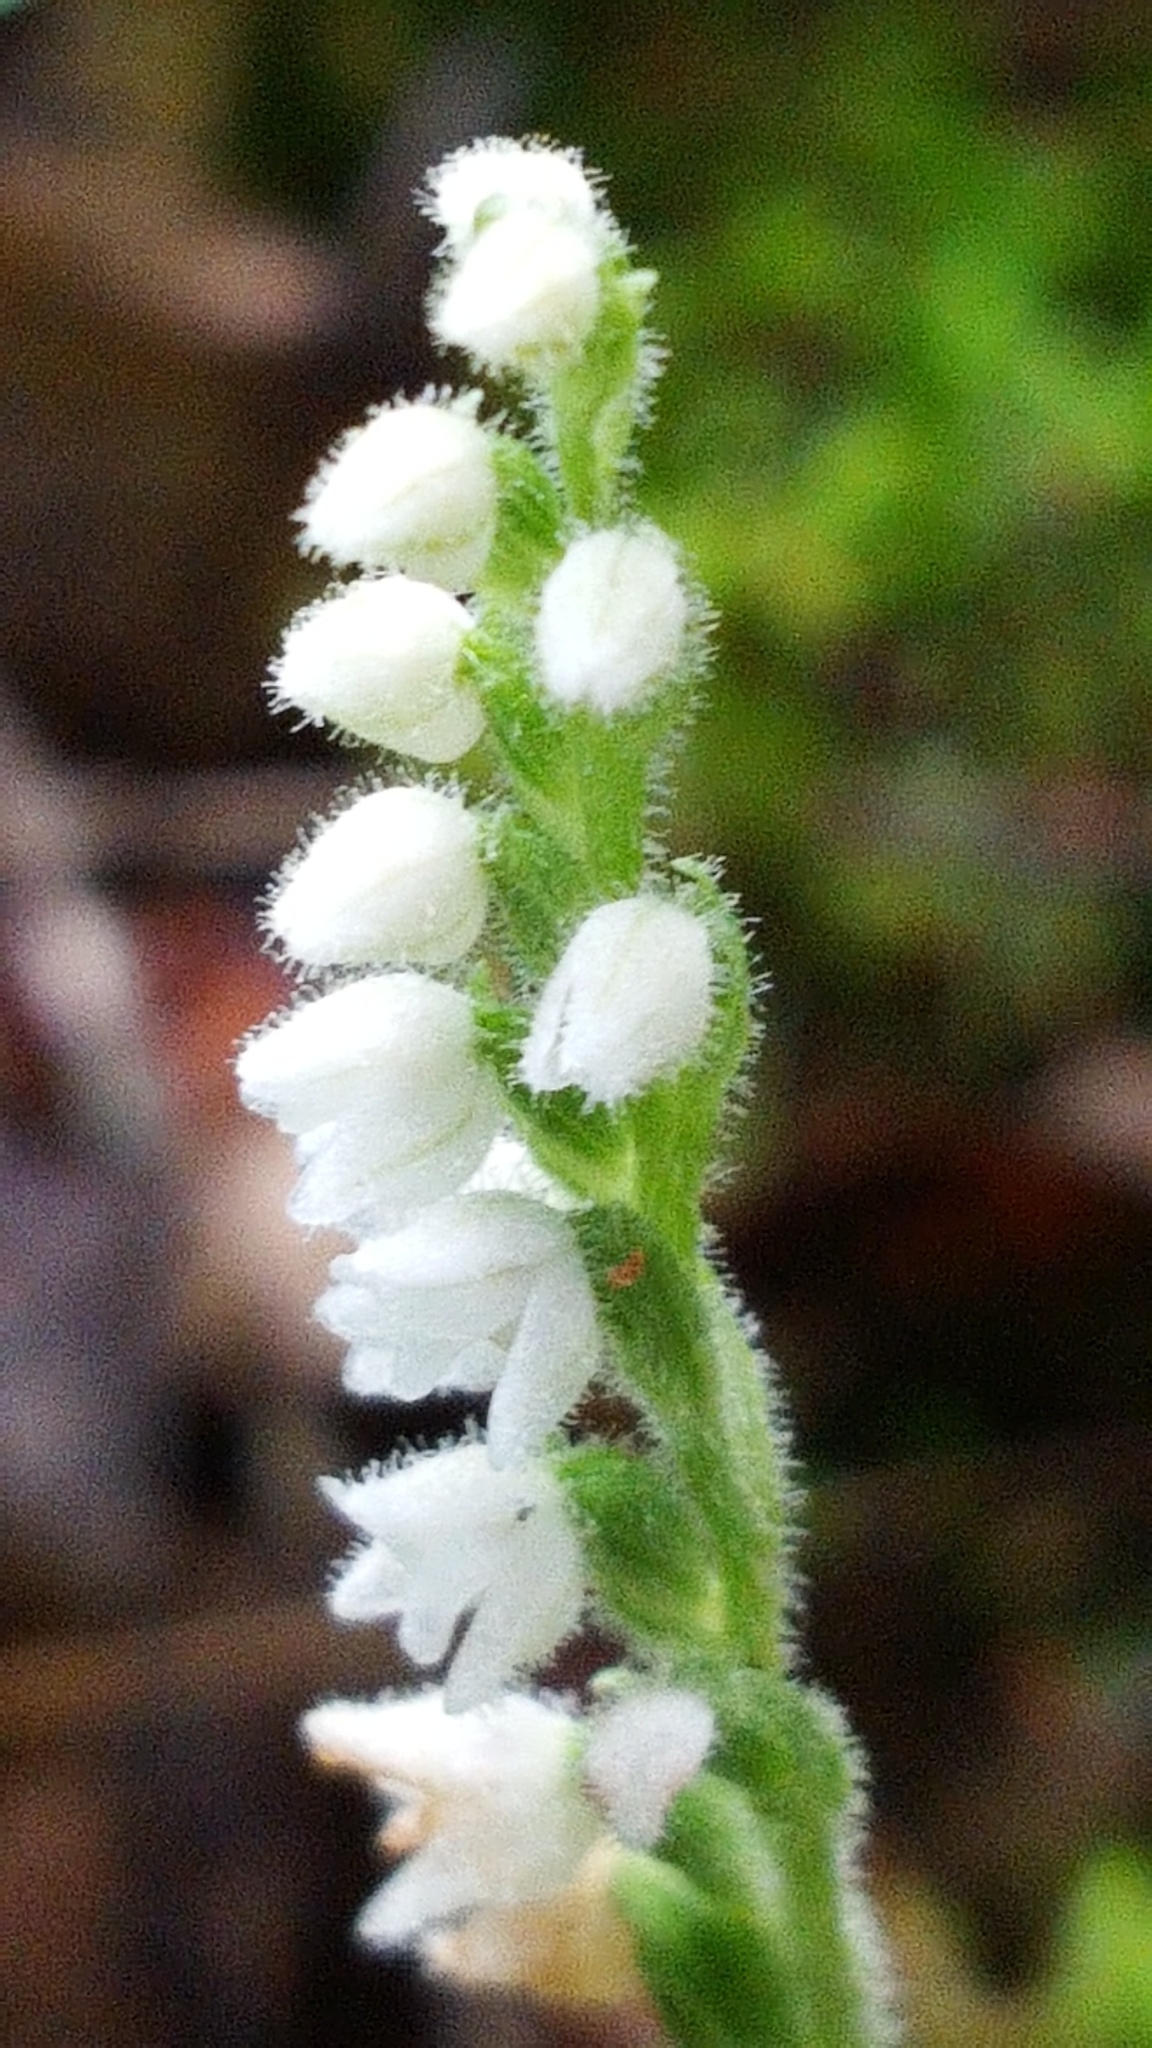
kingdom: Plantae
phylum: Tracheophyta
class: Liliopsida
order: Asparagales
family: Orchidaceae
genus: Goodyera
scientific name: Goodyera repens
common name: Creeping lady's-tresses
